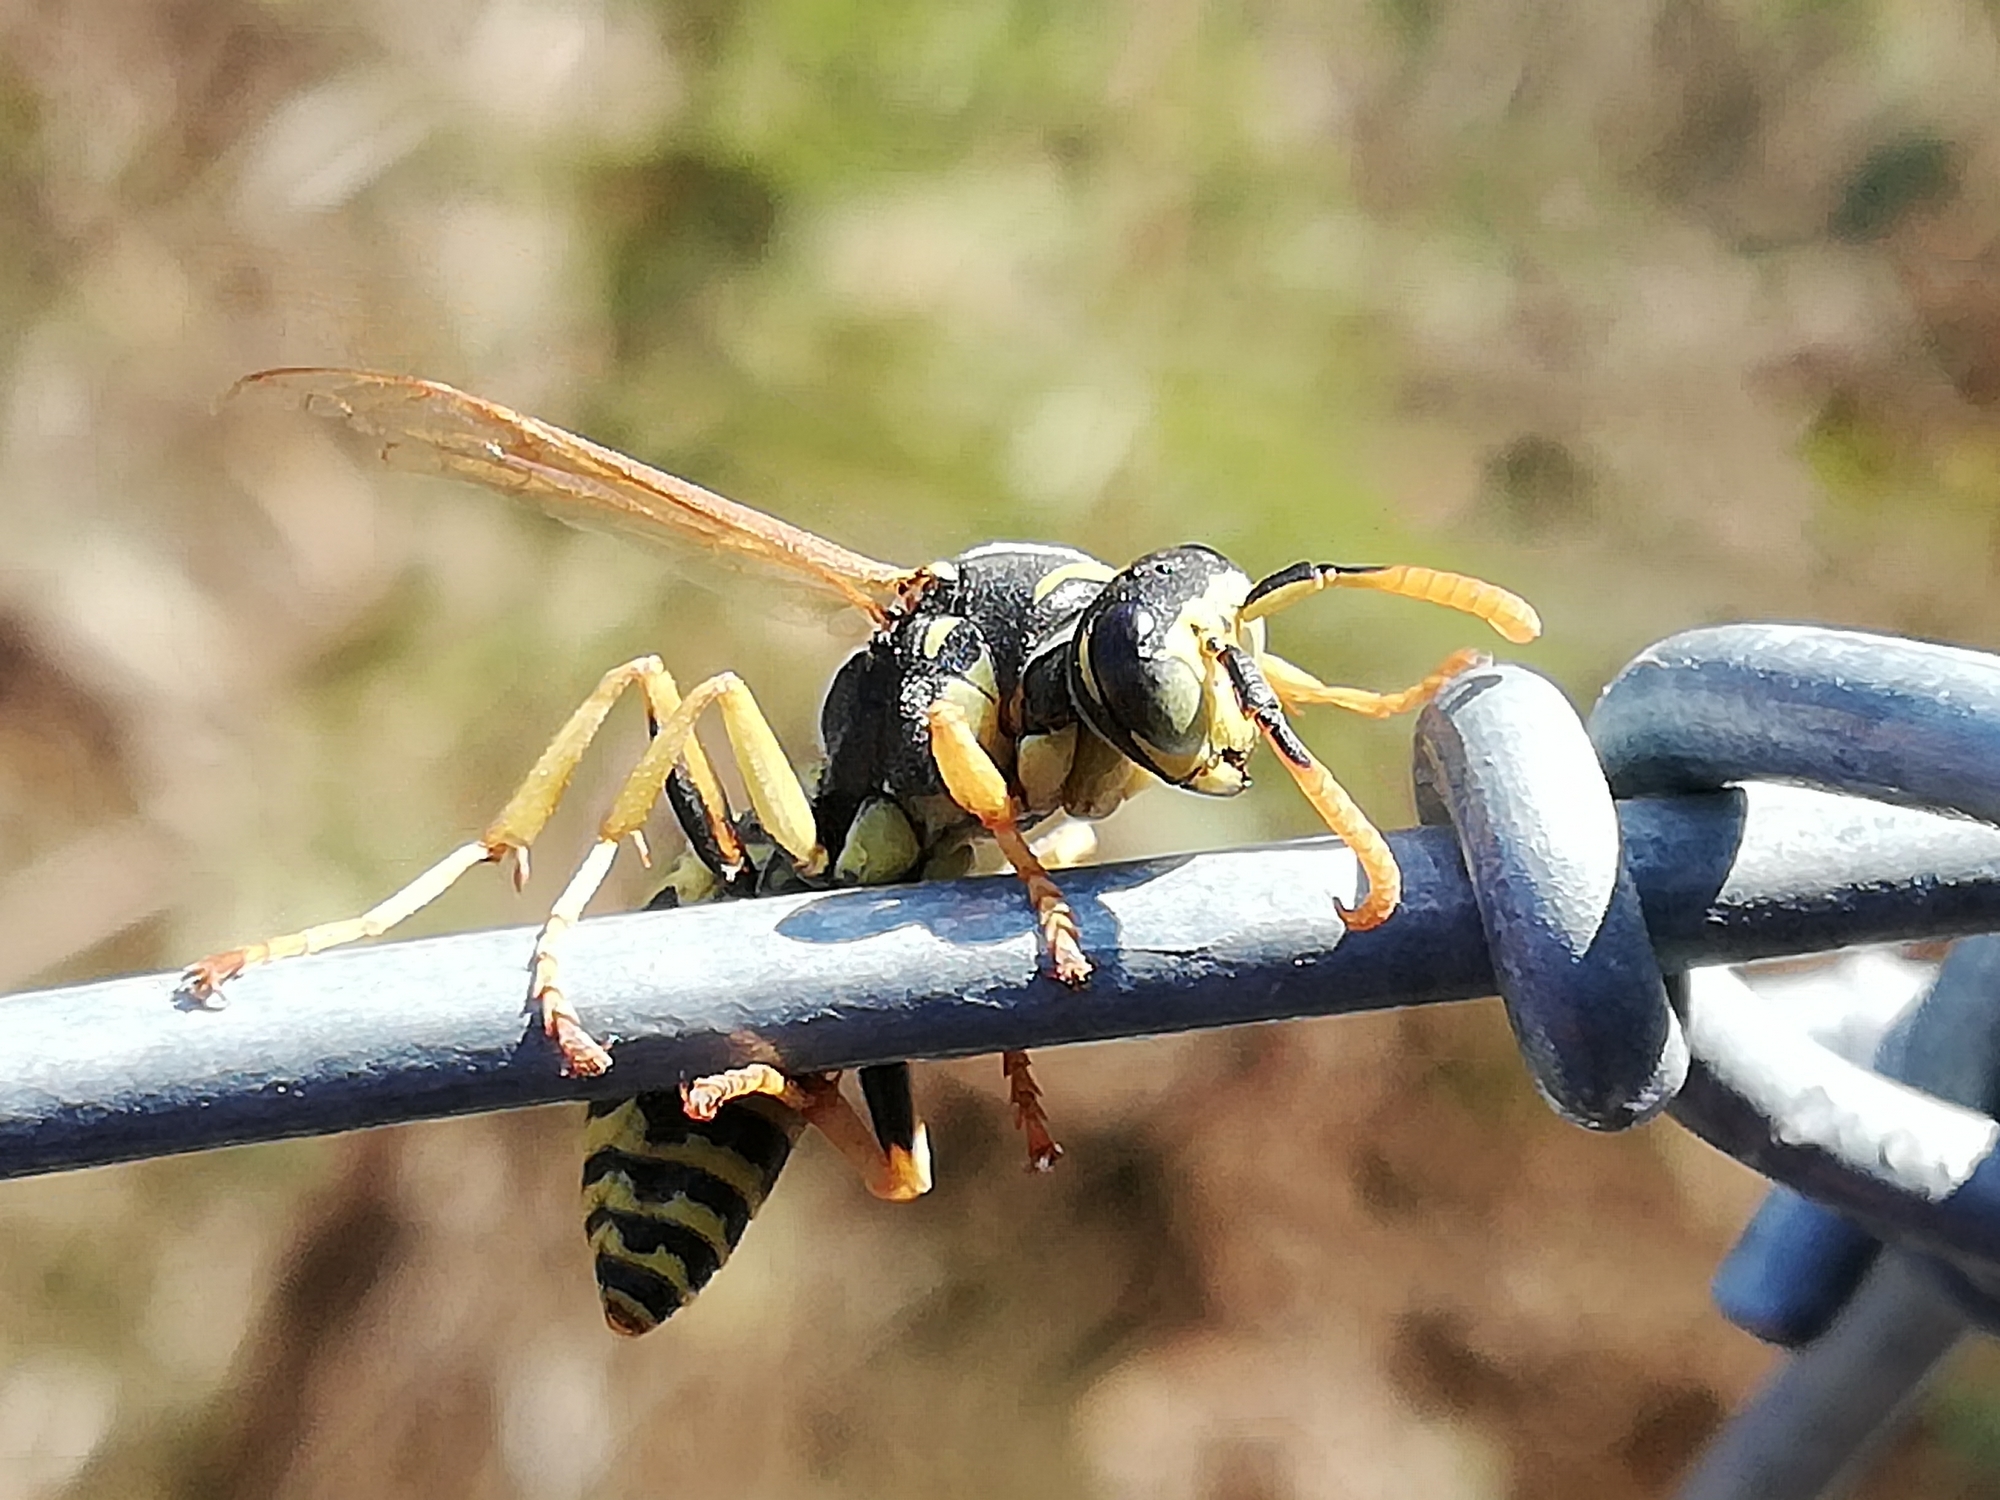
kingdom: Animalia
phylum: Arthropoda
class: Insecta
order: Hymenoptera
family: Eumenidae
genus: Polistes
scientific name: Polistes dominula
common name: Paper wasp
